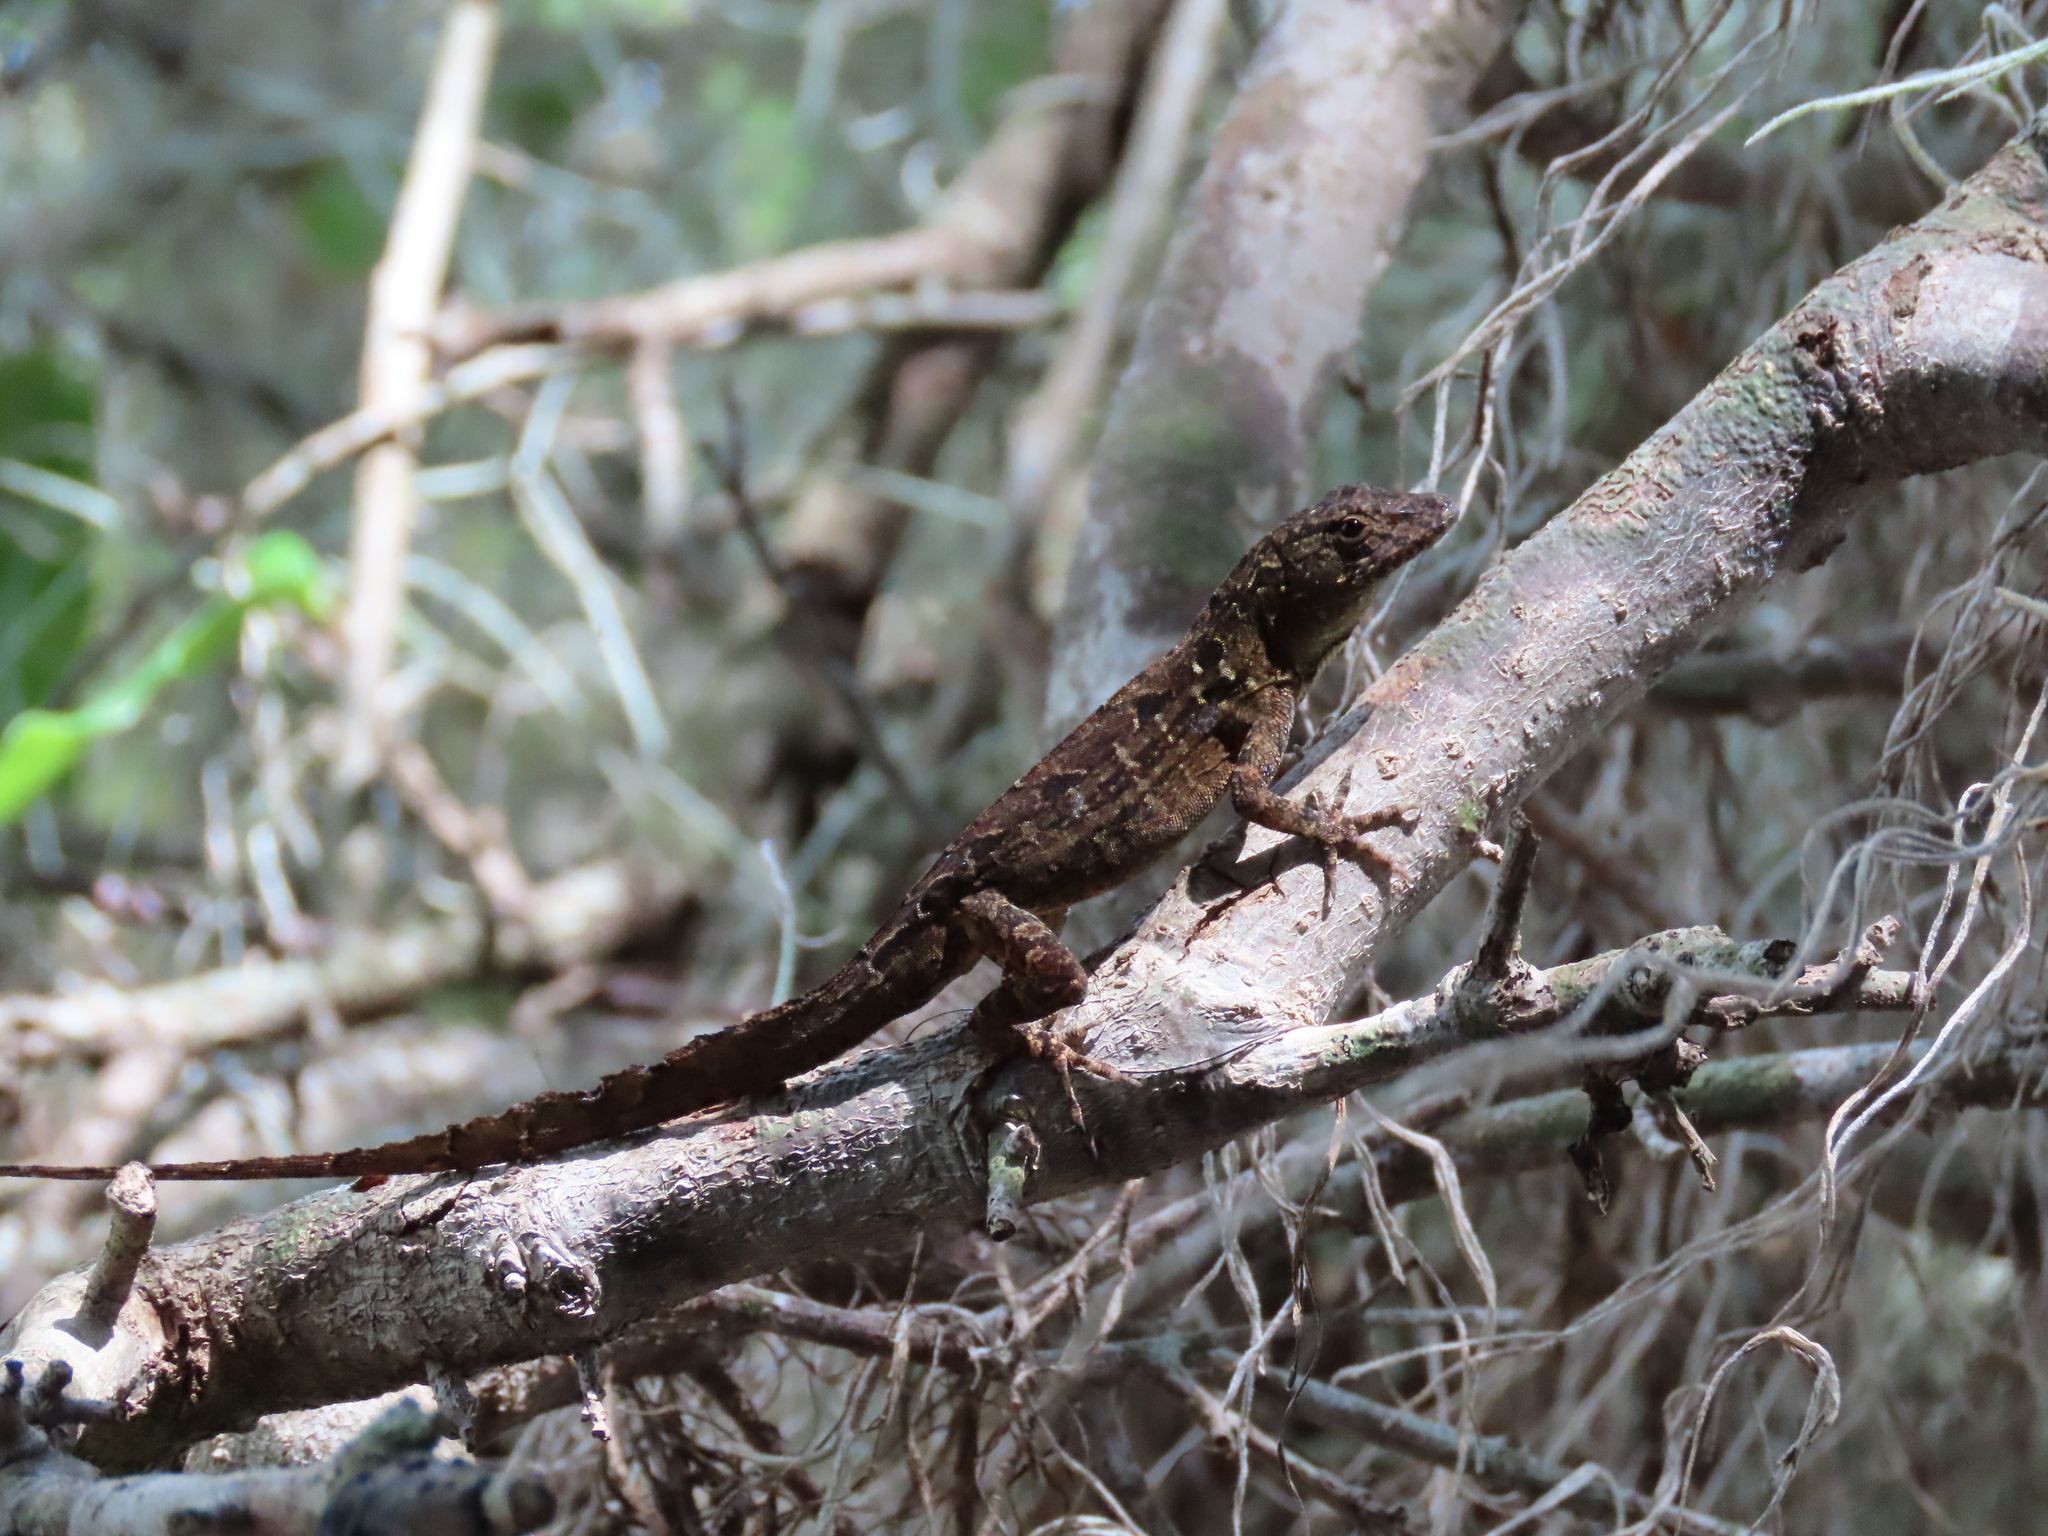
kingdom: Animalia
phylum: Chordata
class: Squamata
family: Dactyloidae
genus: Anolis
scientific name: Anolis sagrei
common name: Brown anole
